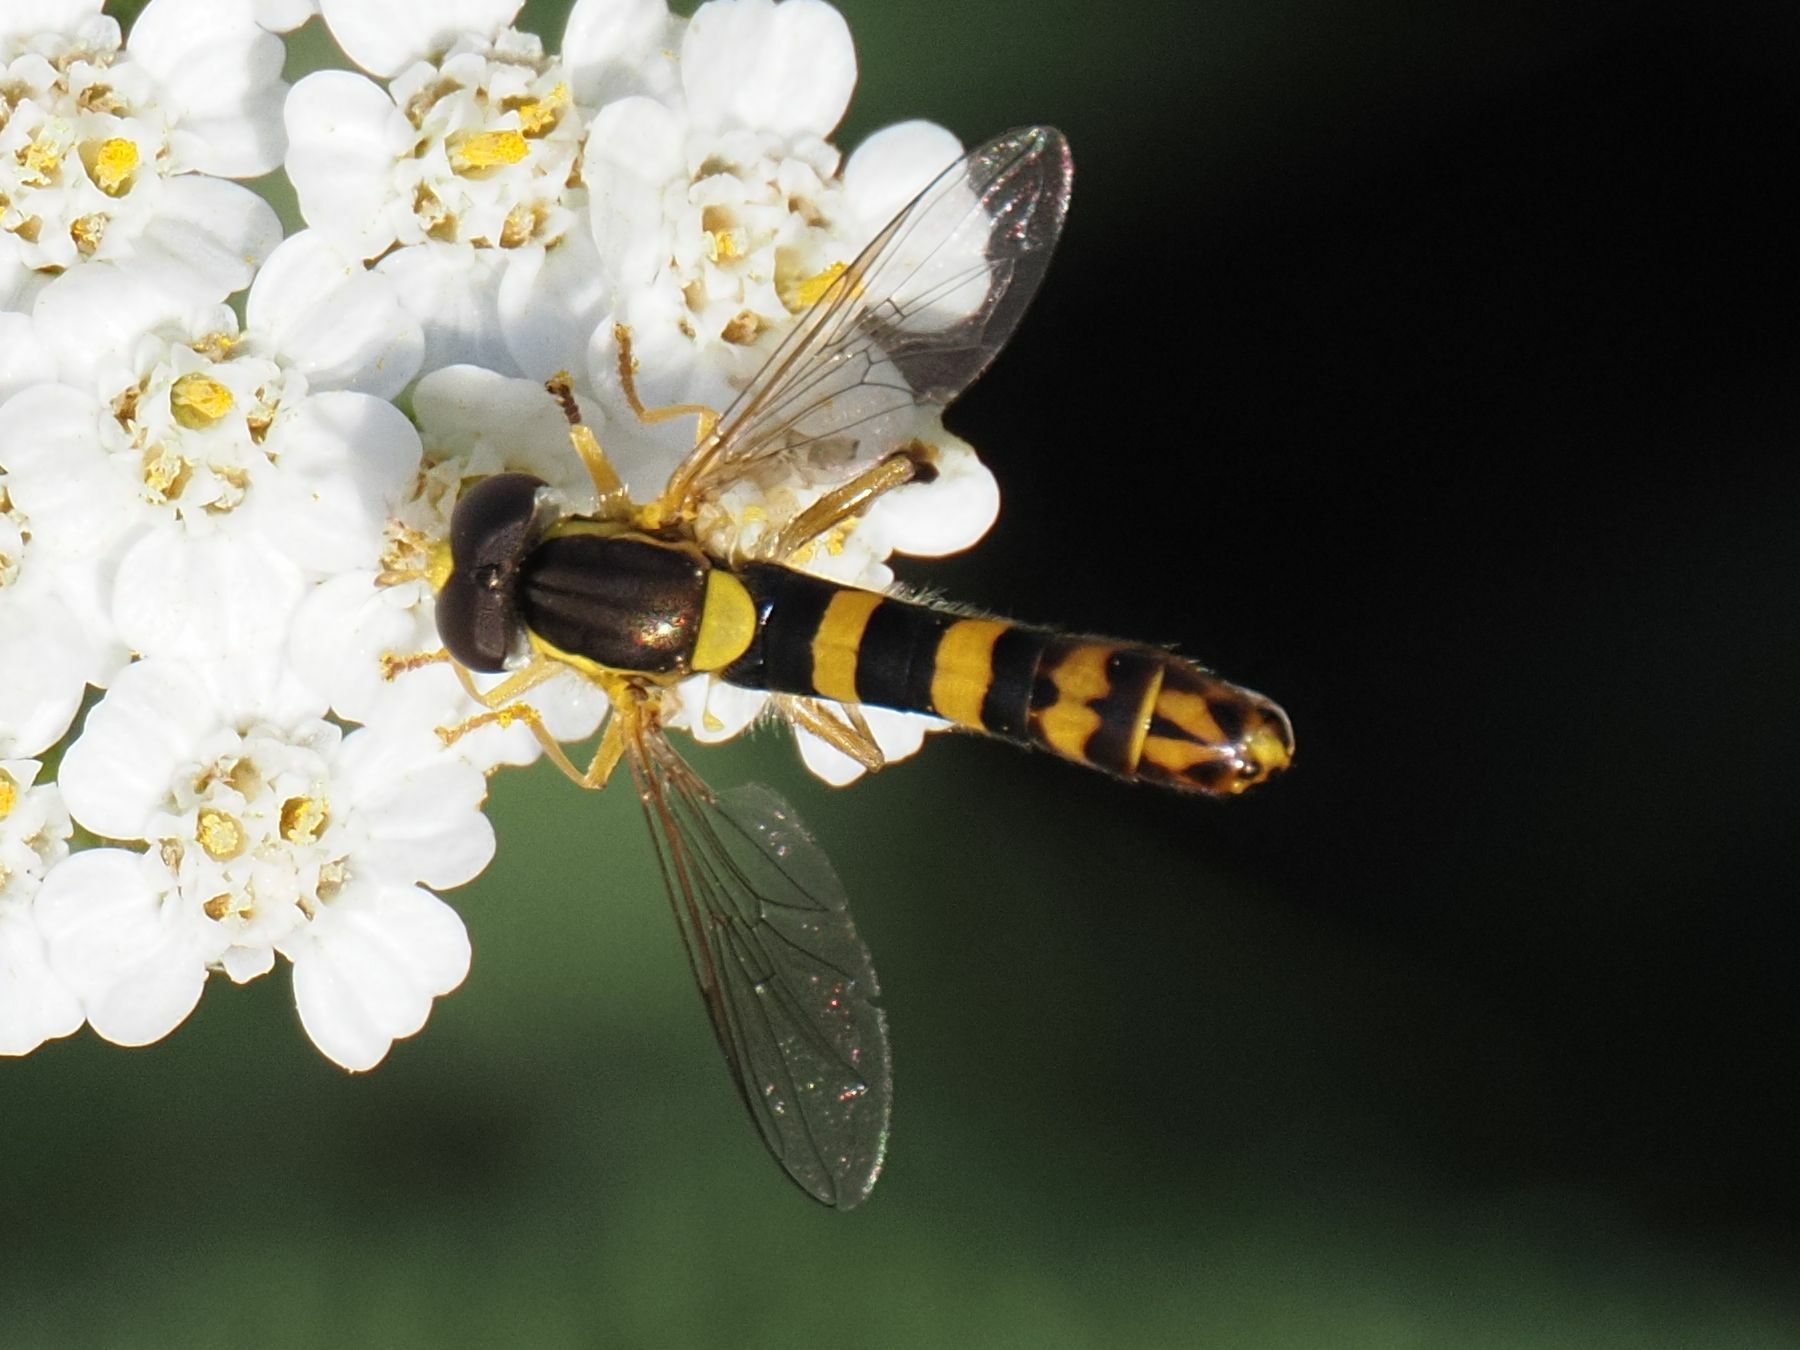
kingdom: Animalia
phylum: Arthropoda
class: Insecta
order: Diptera
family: Syrphidae
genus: Sphaerophoria
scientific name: Sphaerophoria scripta
